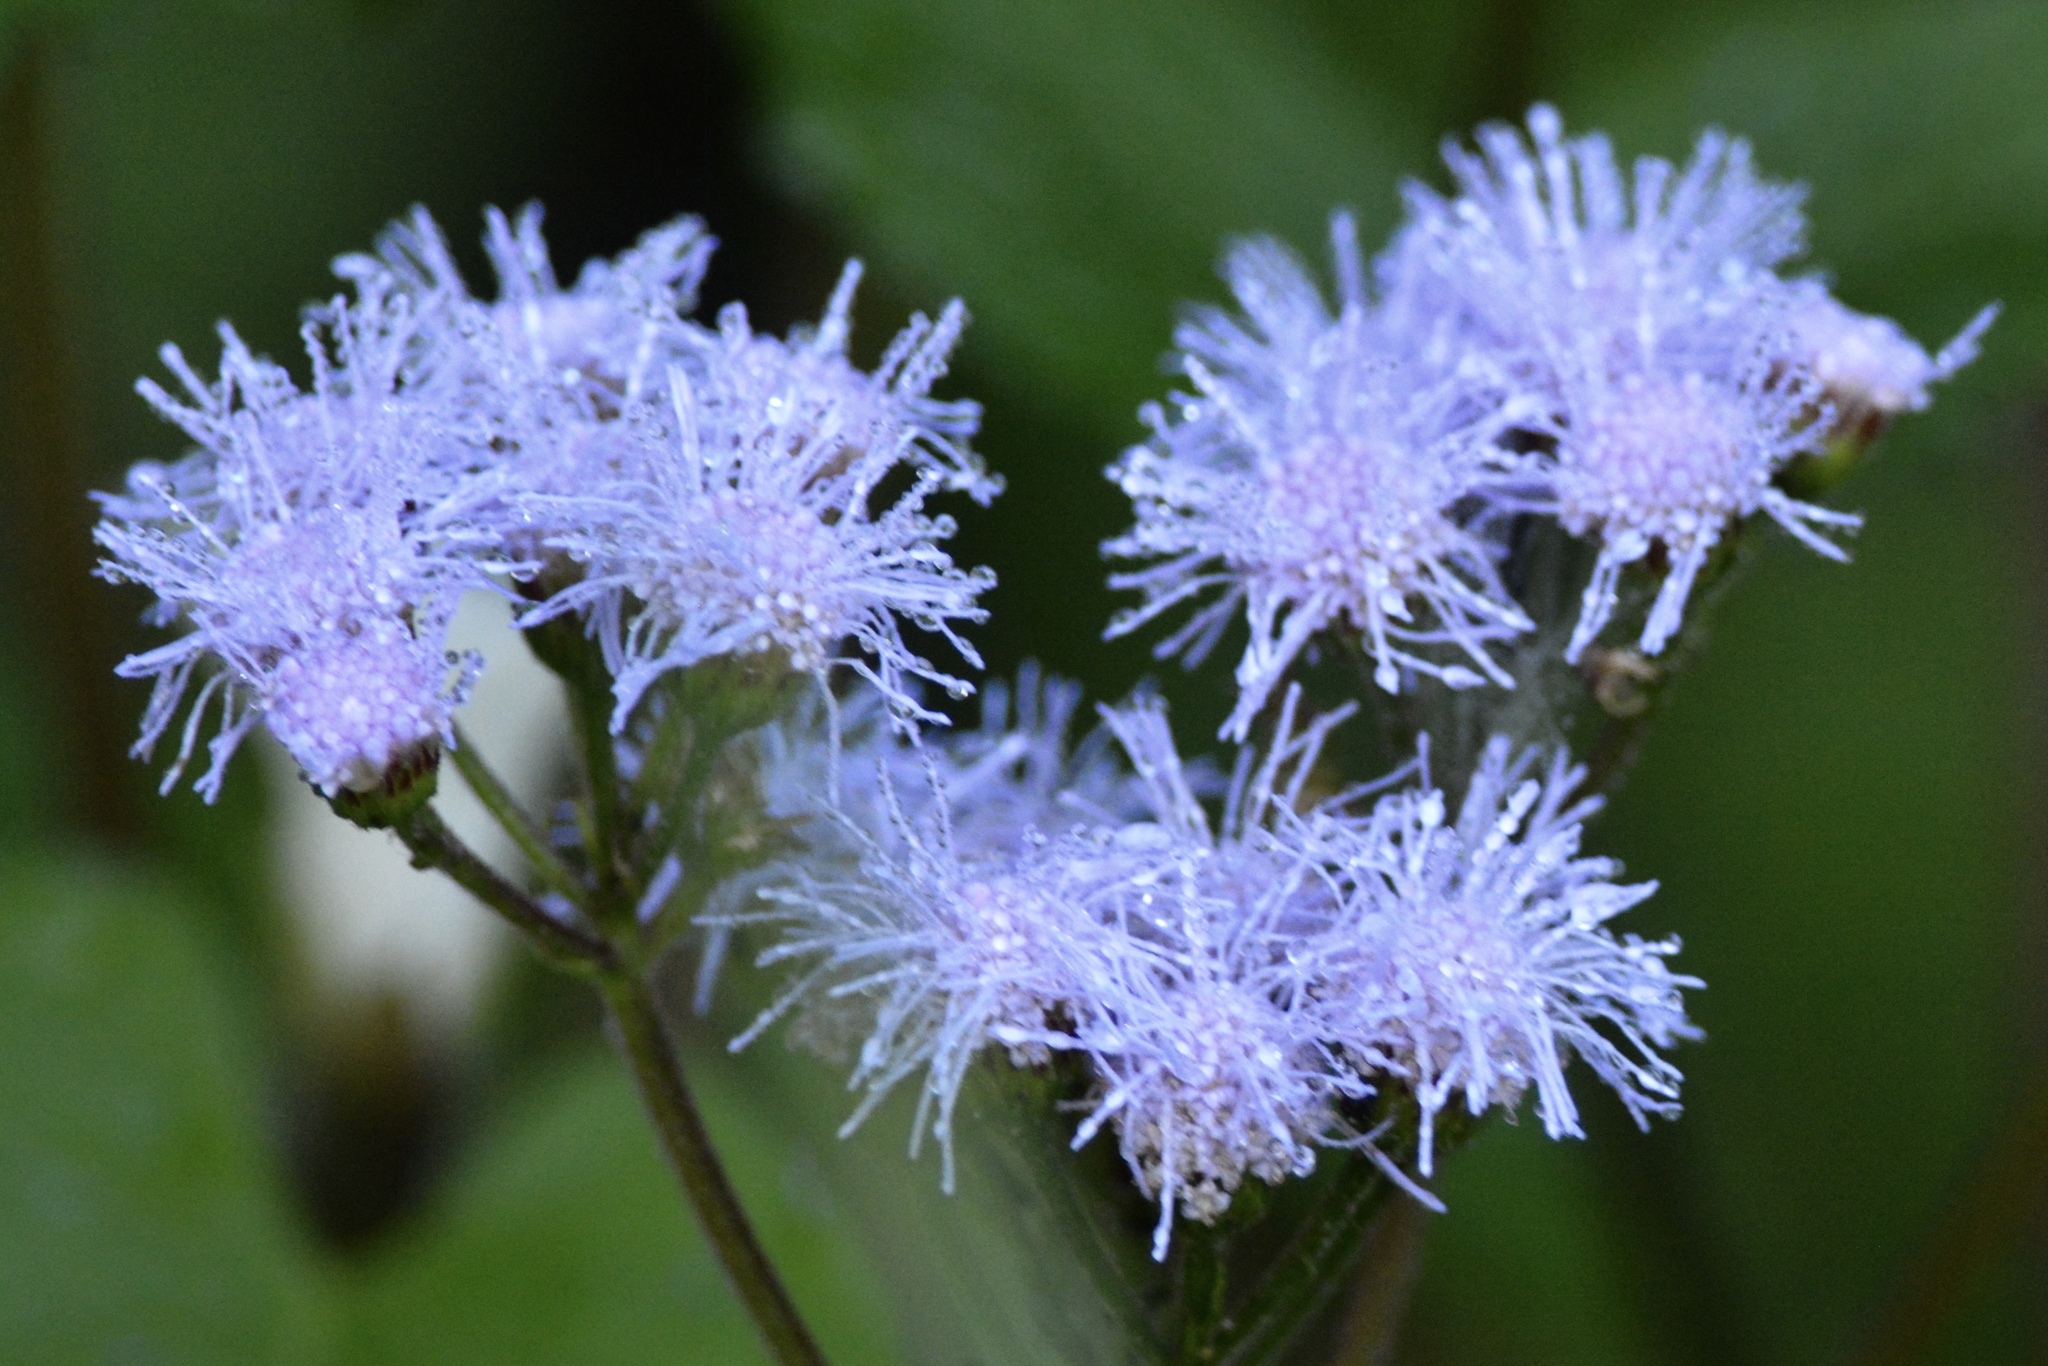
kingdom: Plantae
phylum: Tracheophyta
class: Magnoliopsida
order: Asterales
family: Asteraceae
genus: Conoclinium
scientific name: Conoclinium coelestinum
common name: Blue mistflower
